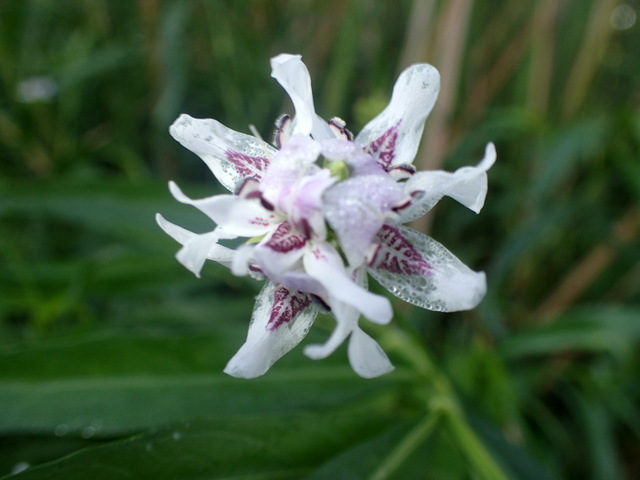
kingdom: Plantae
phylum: Tracheophyta
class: Magnoliopsida
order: Lamiales
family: Acanthaceae
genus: Dianthera
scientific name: Dianthera americana
